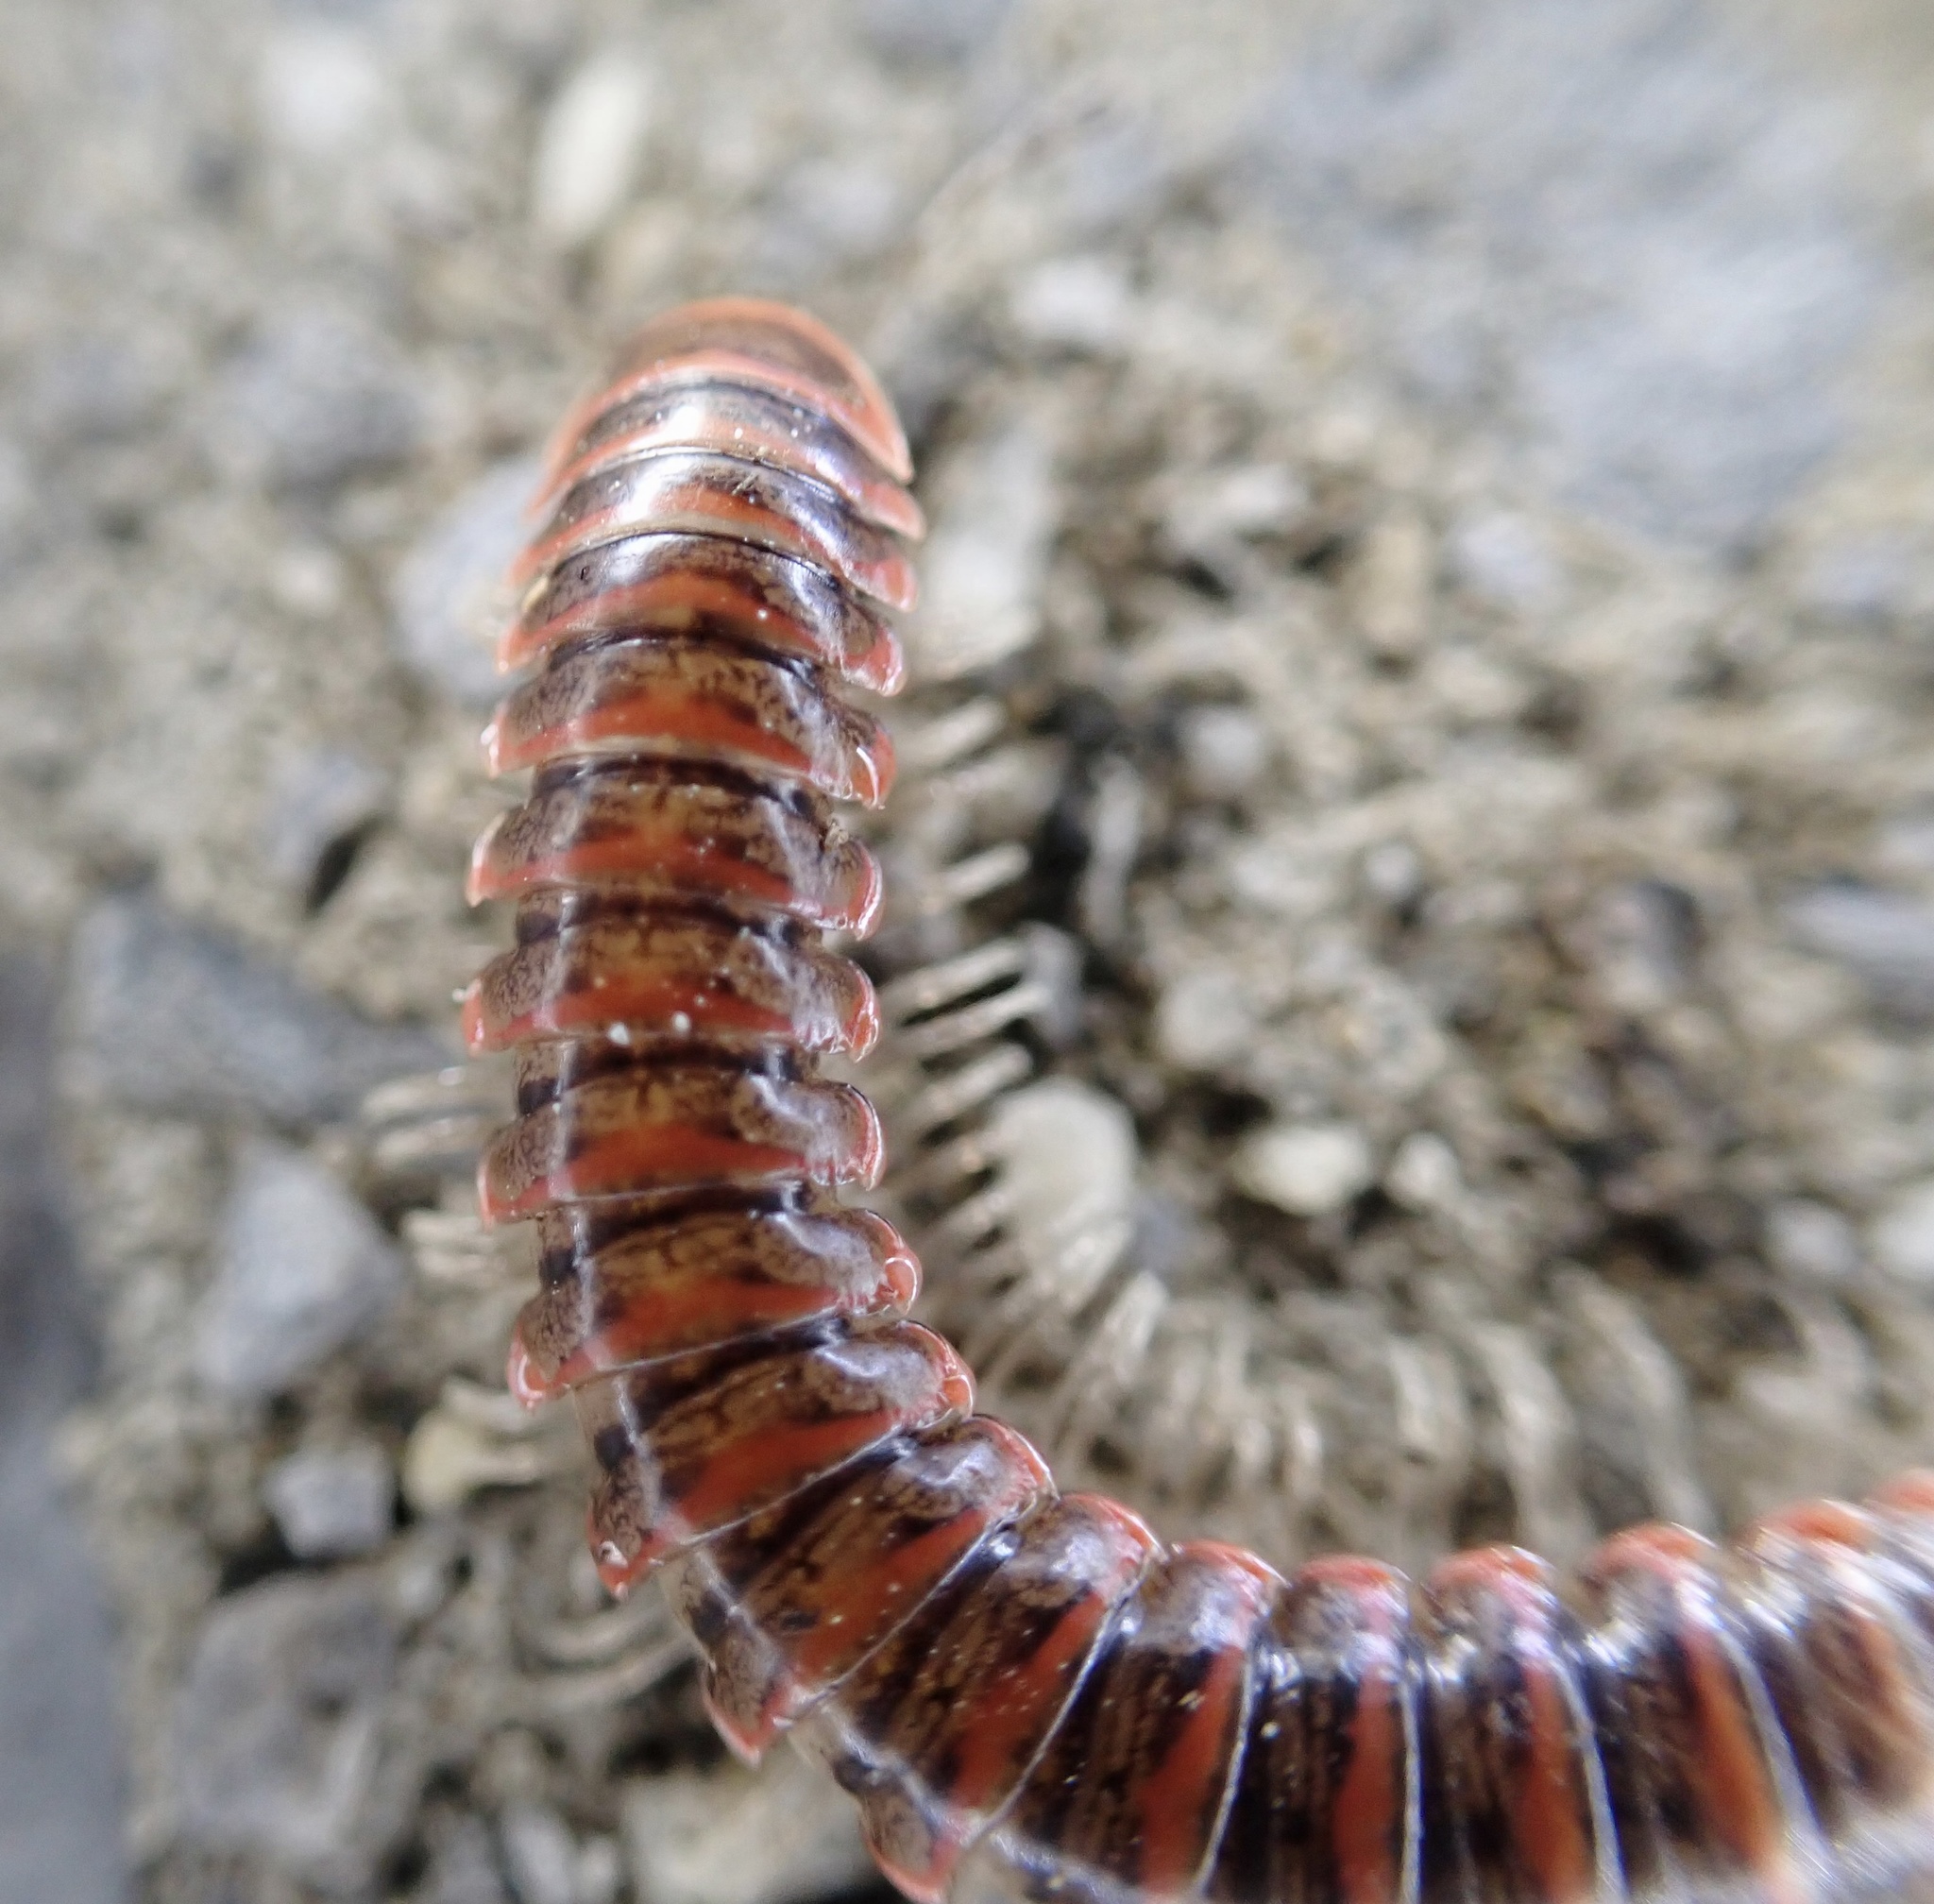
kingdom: Animalia
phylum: Arthropoda
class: Diplopoda
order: Polydesmida
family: Xystodesmidae
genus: Oenomaea
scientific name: Oenomaea pulchella
